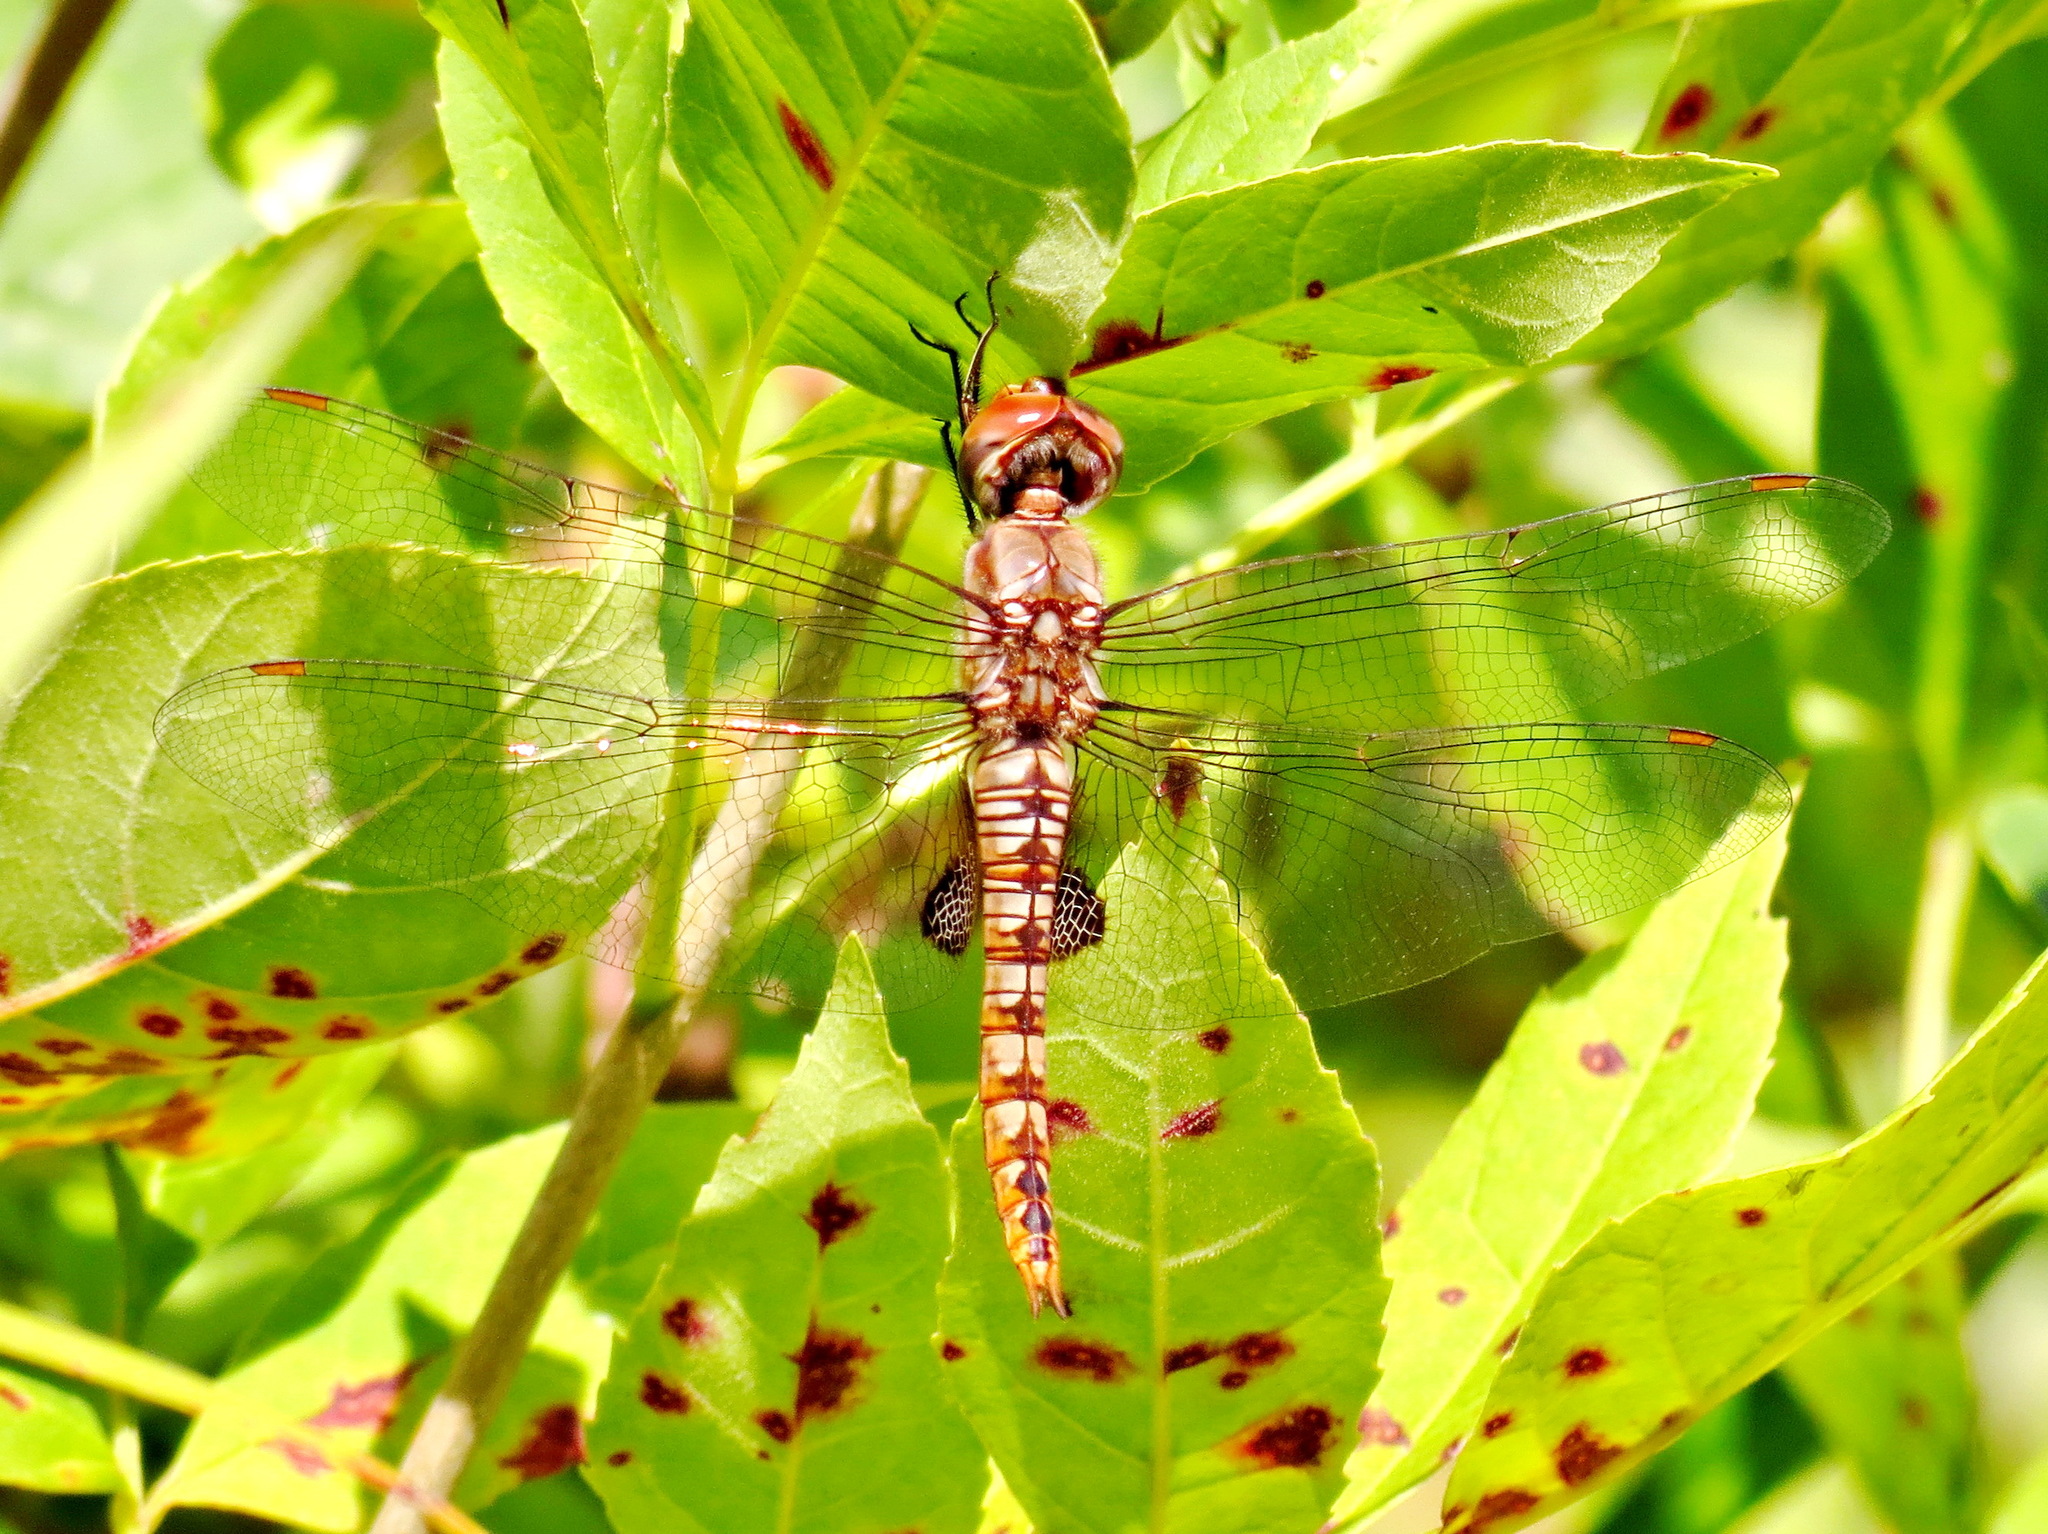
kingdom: Animalia
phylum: Arthropoda
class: Insecta
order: Odonata
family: Libellulidae
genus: Pantala
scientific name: Pantala hymenaea
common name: Spot-winged glider
